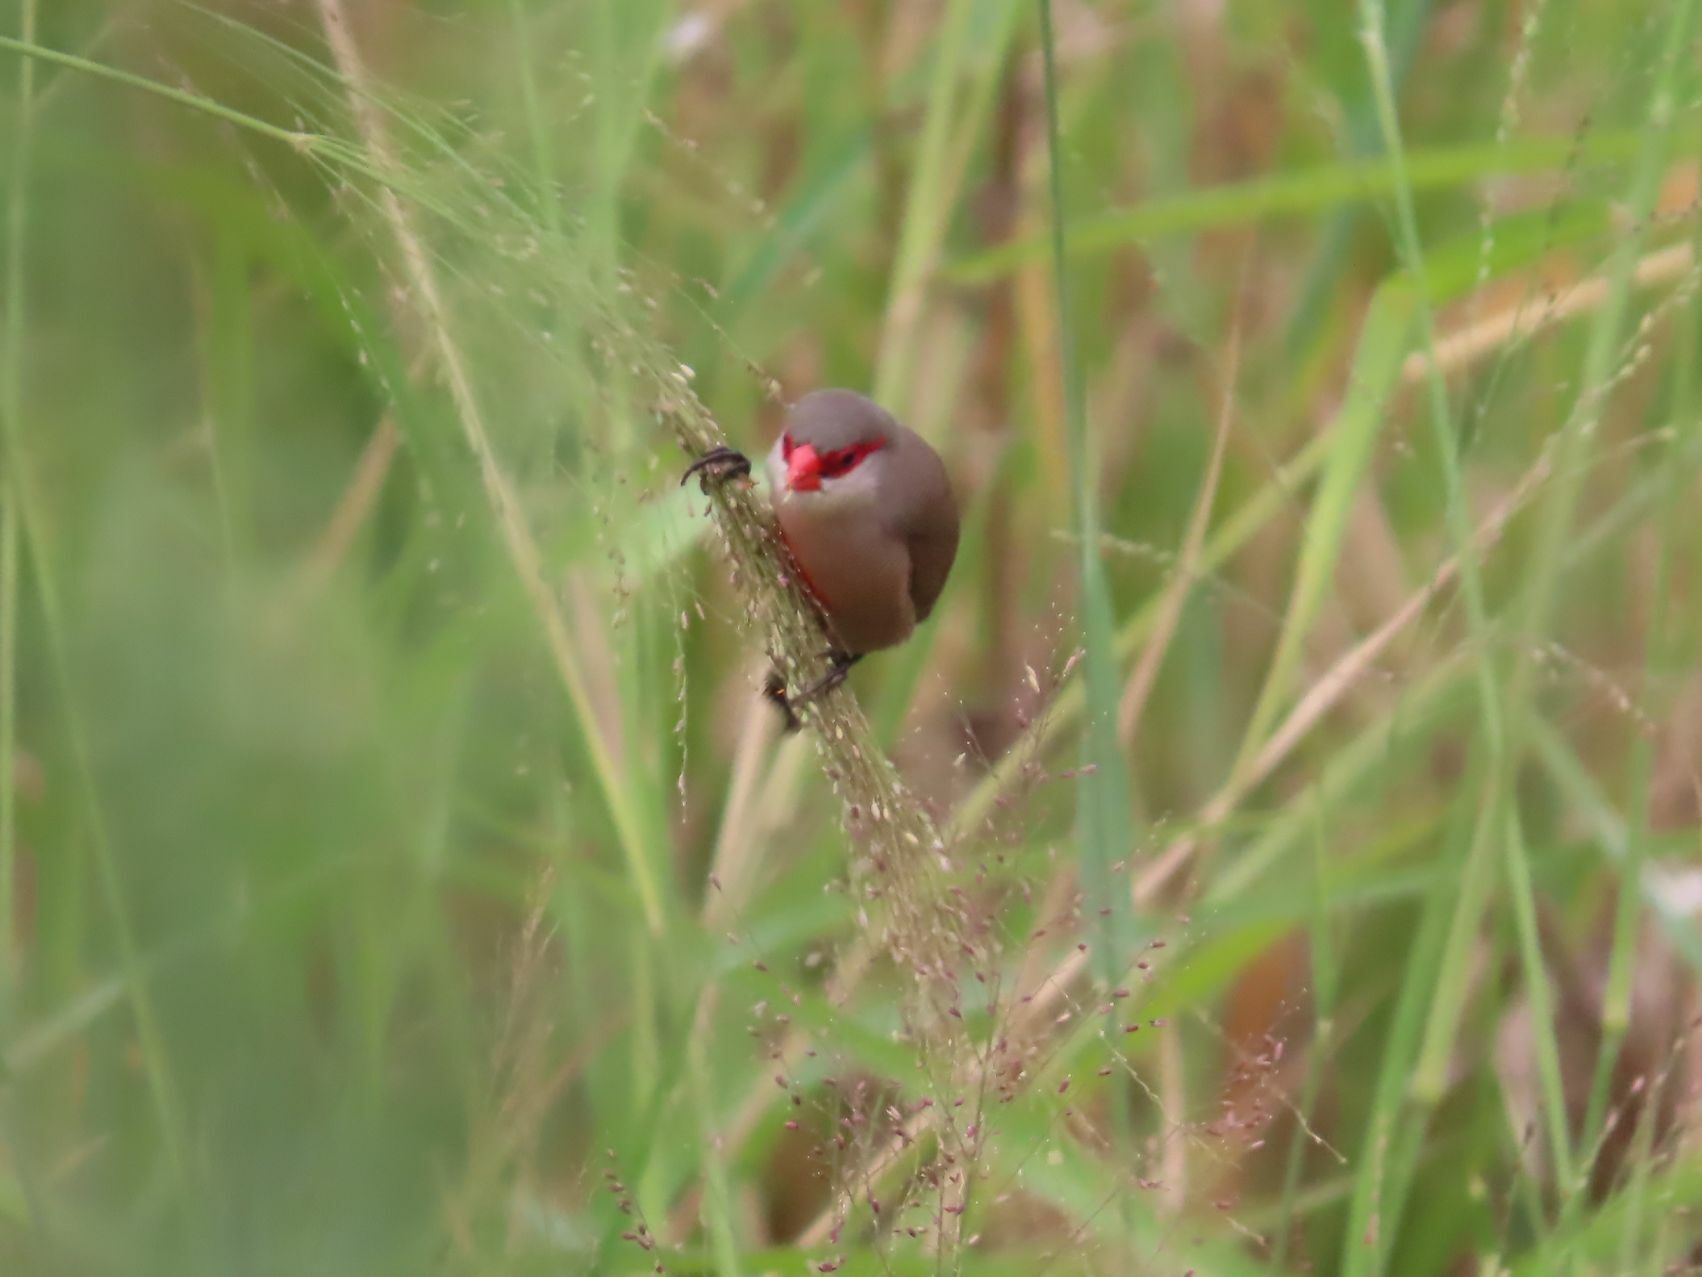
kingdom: Animalia
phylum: Chordata
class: Aves
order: Passeriformes
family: Estrildidae
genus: Estrilda
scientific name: Estrilda astrild
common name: Common waxbill
